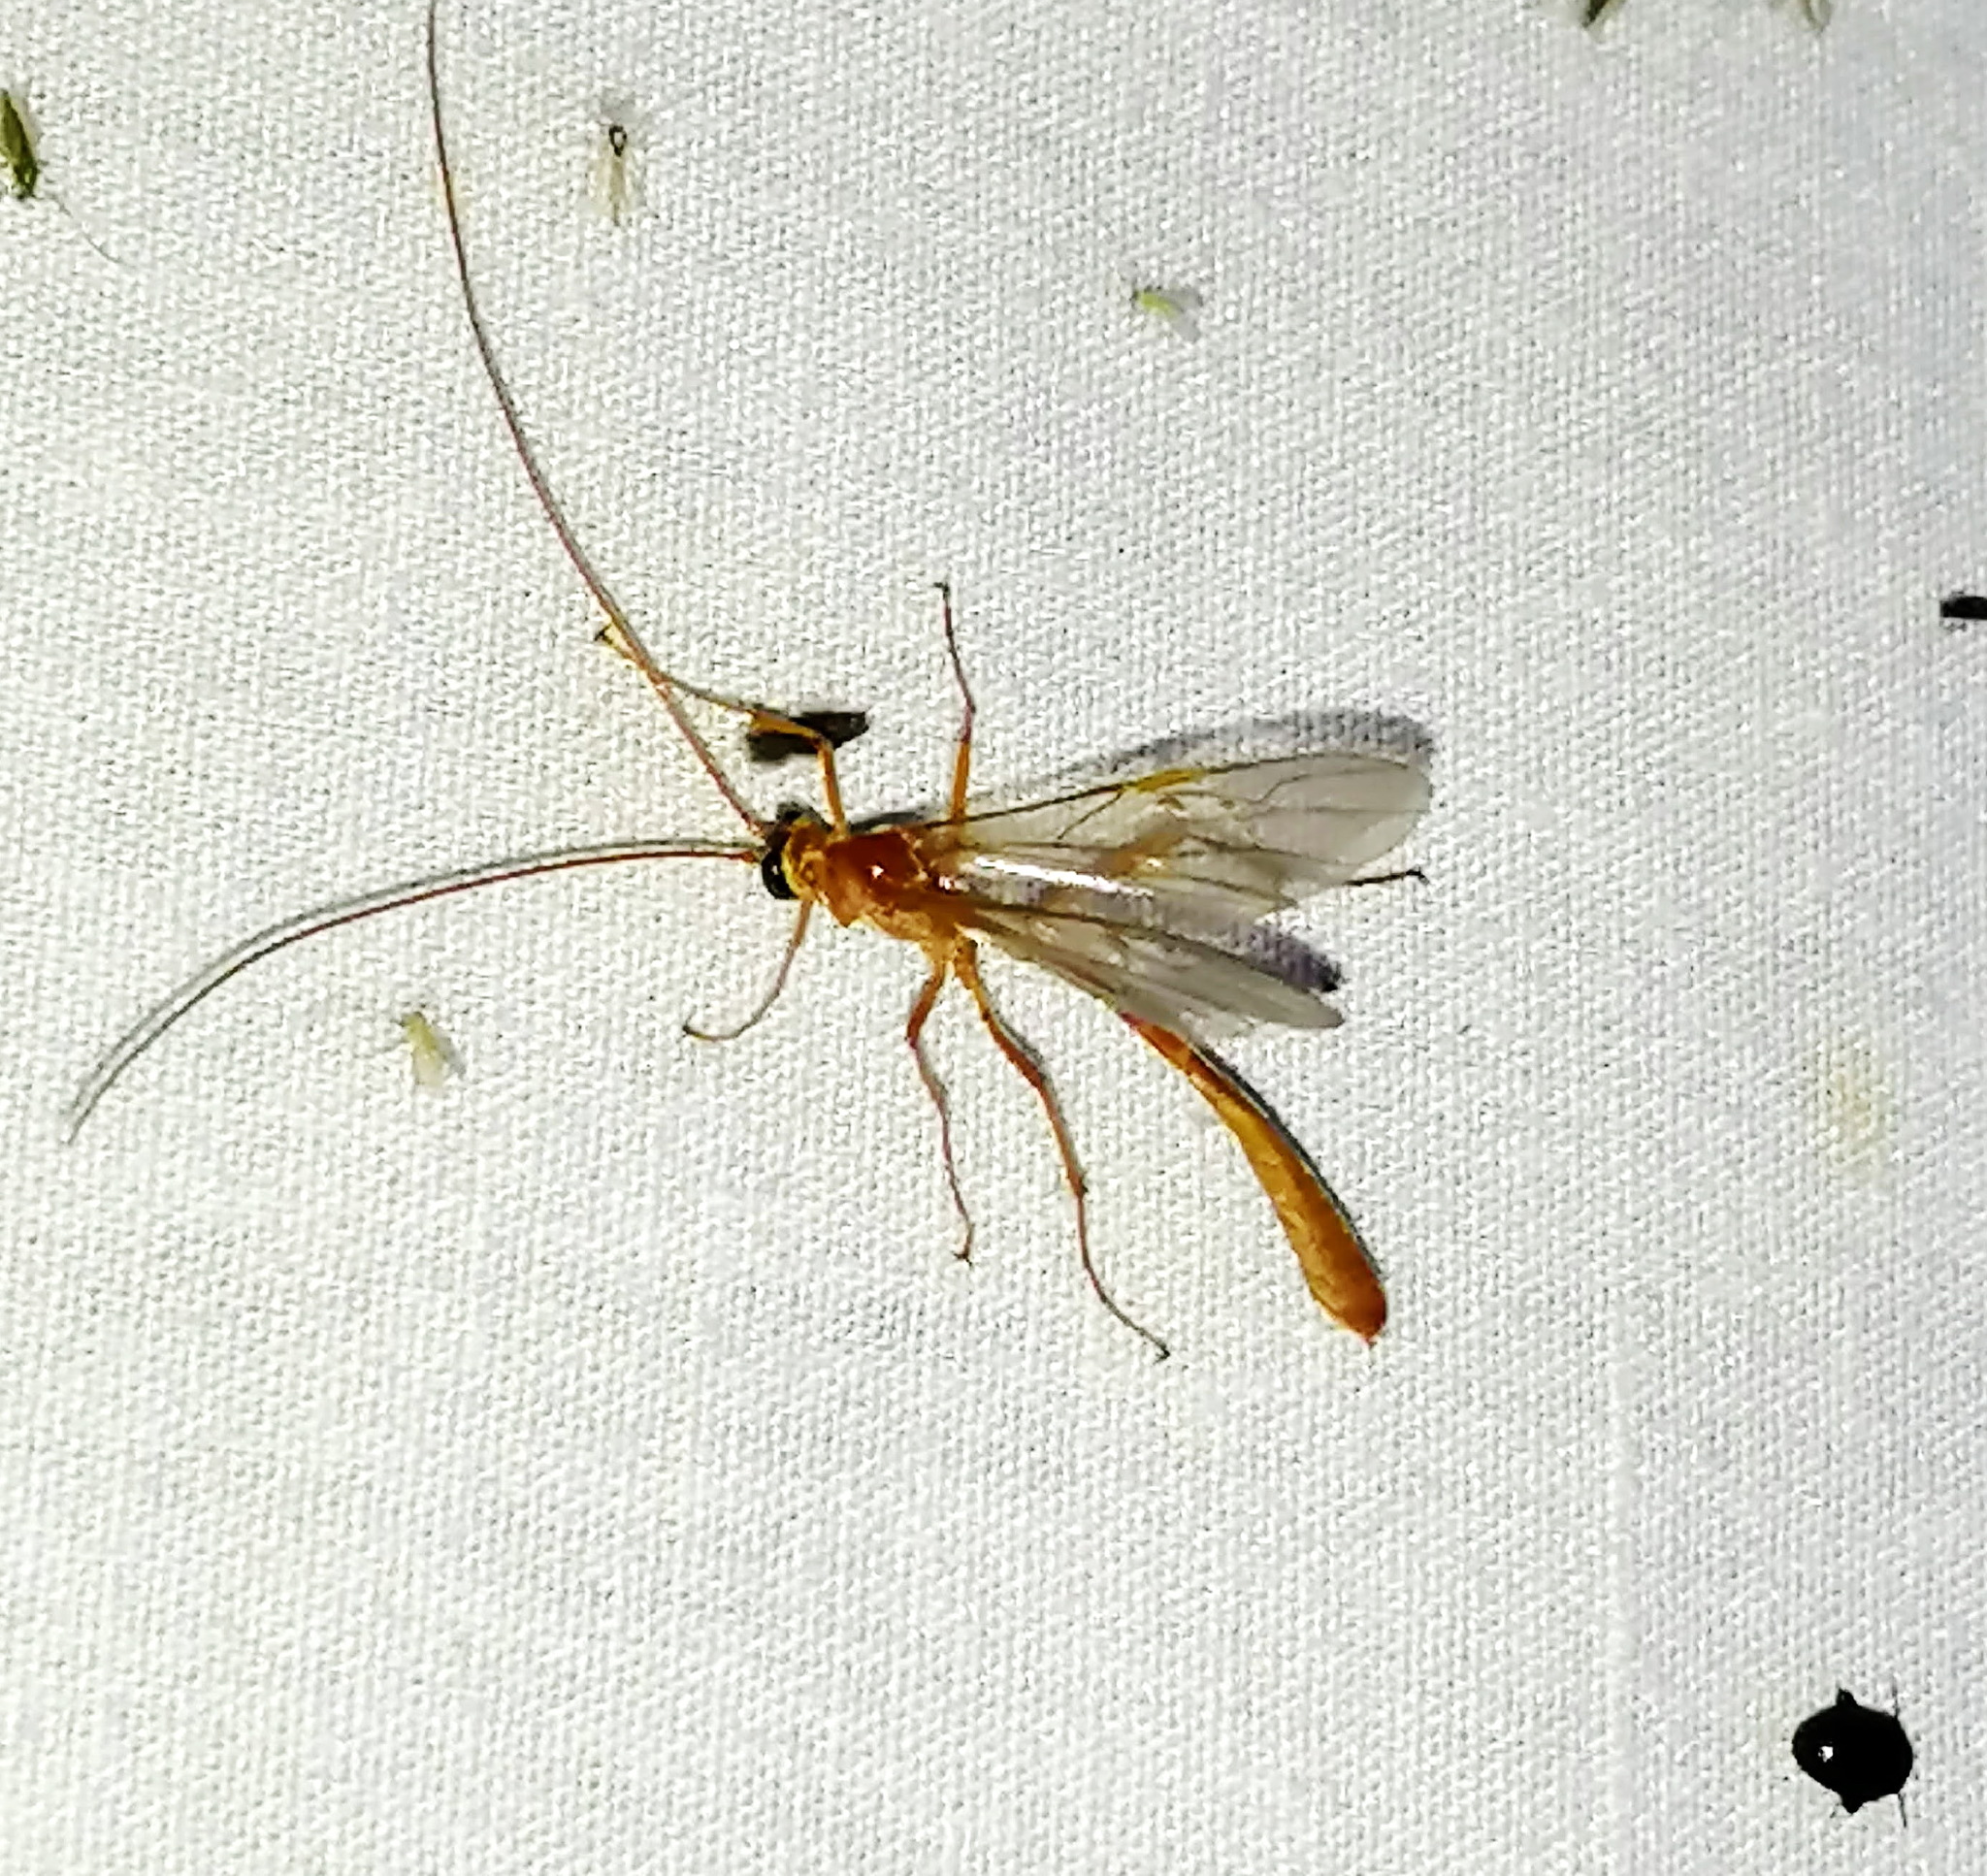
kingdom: Animalia
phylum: Arthropoda
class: Insecta
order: Hymenoptera
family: Ichneumonidae
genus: Enicospilus
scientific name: Enicospilus purgatus
